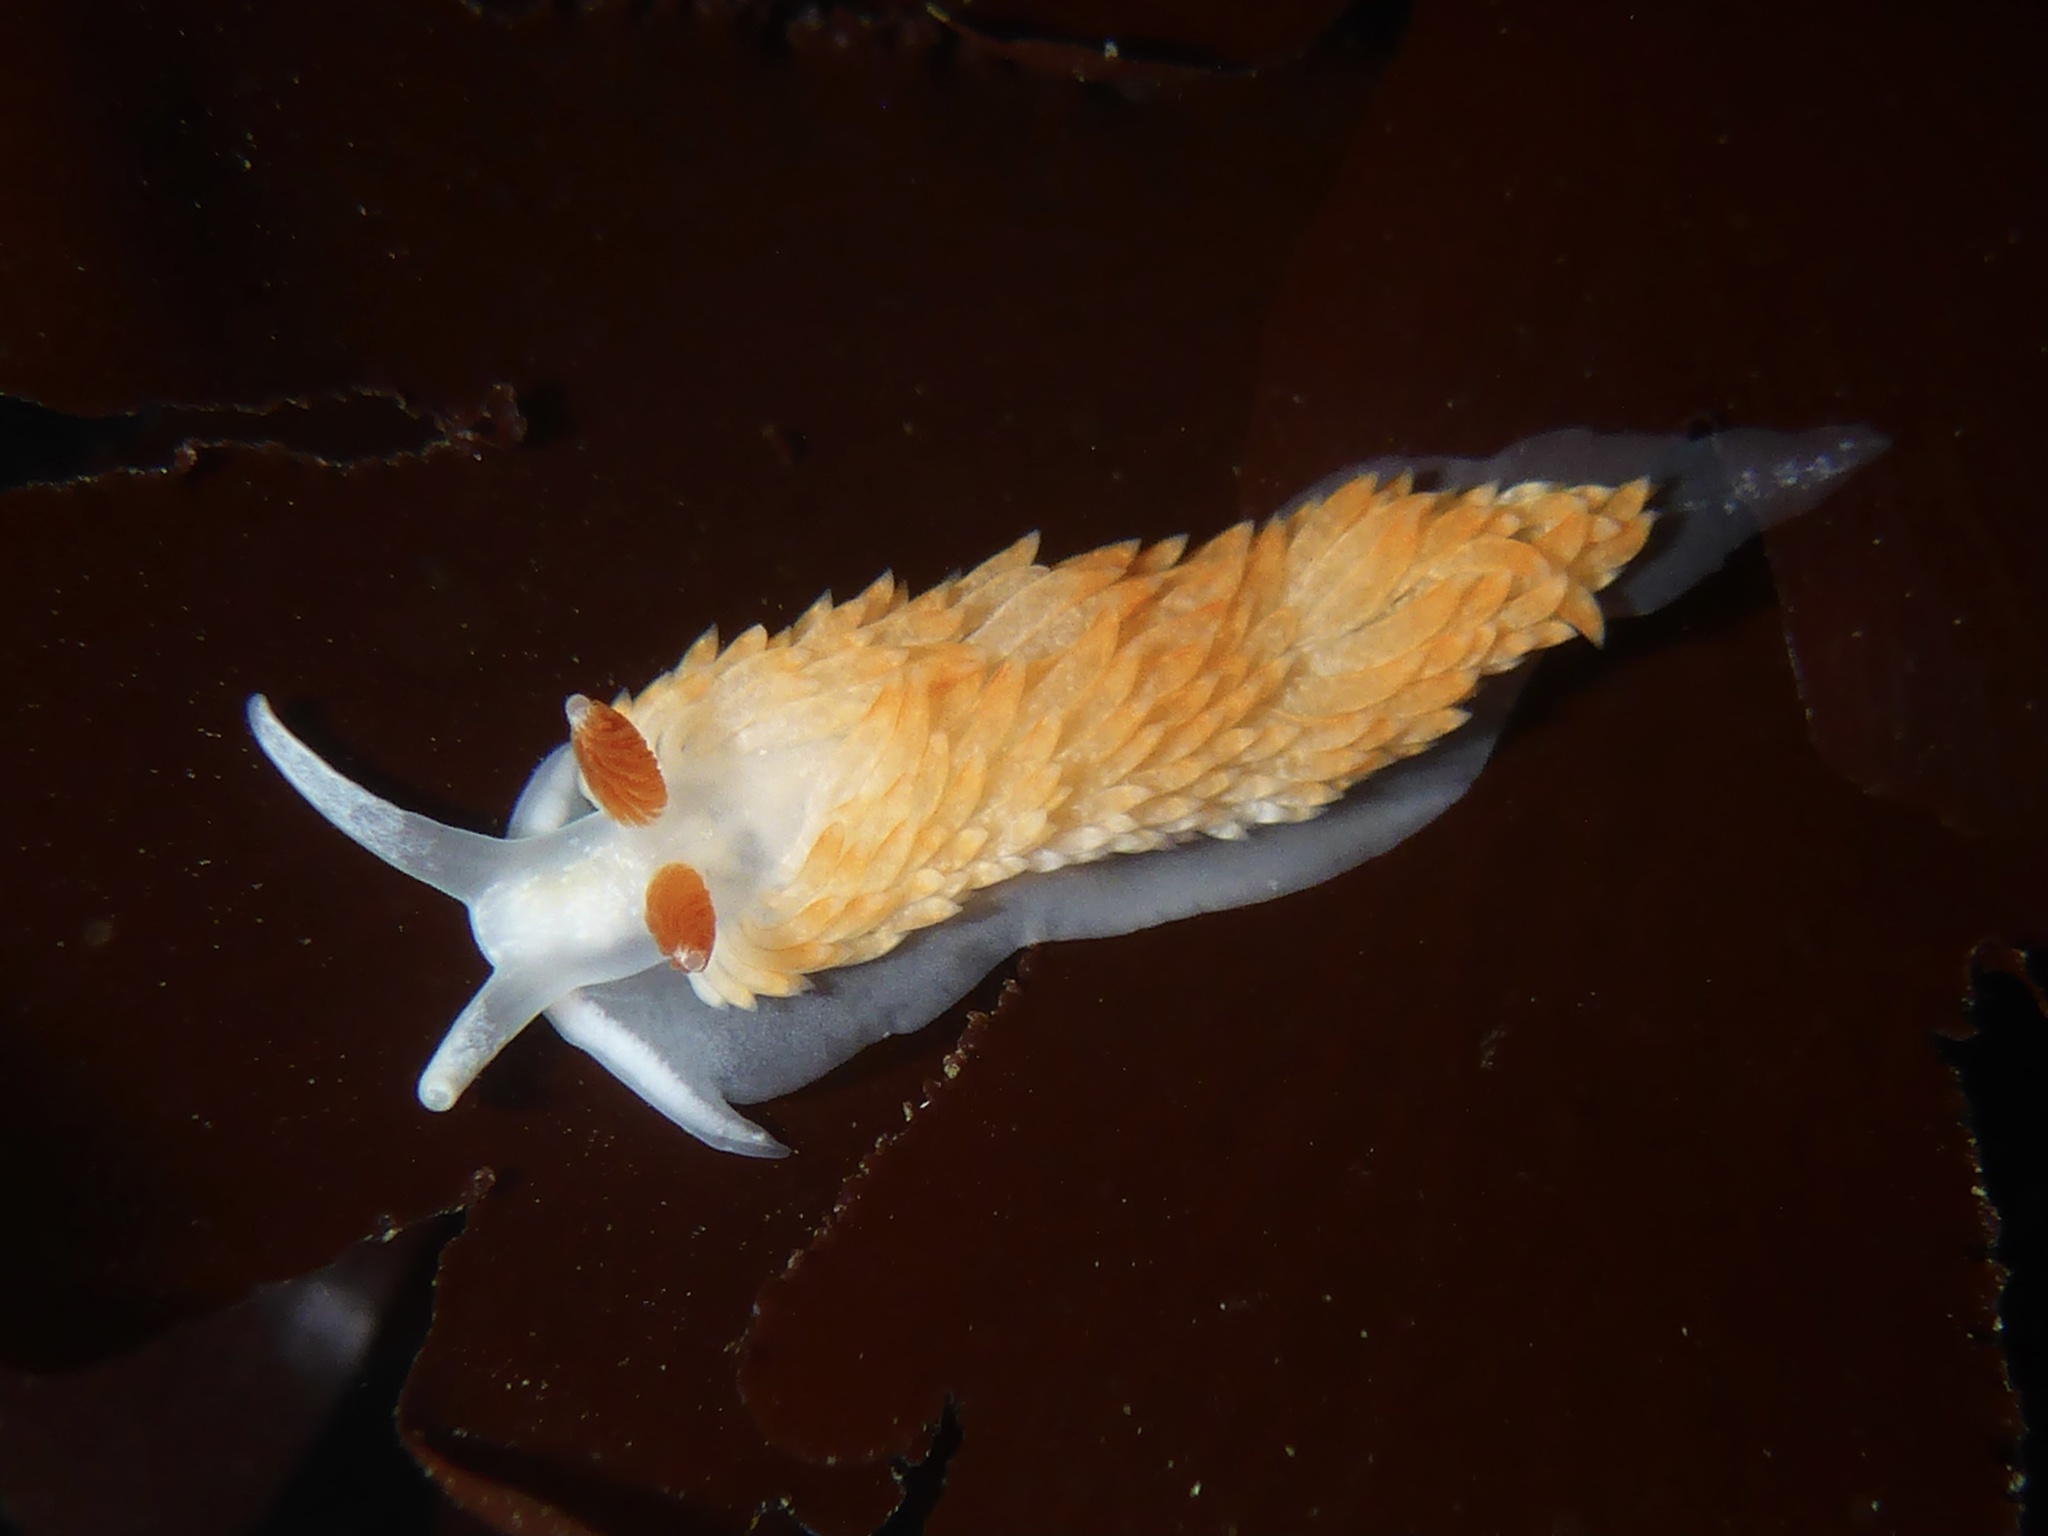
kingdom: Animalia
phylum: Mollusca
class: Gastropoda
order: Nudibranchia
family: Aeolidiidae
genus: Anteaeolidiella
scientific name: Anteaeolidiella oliviae
